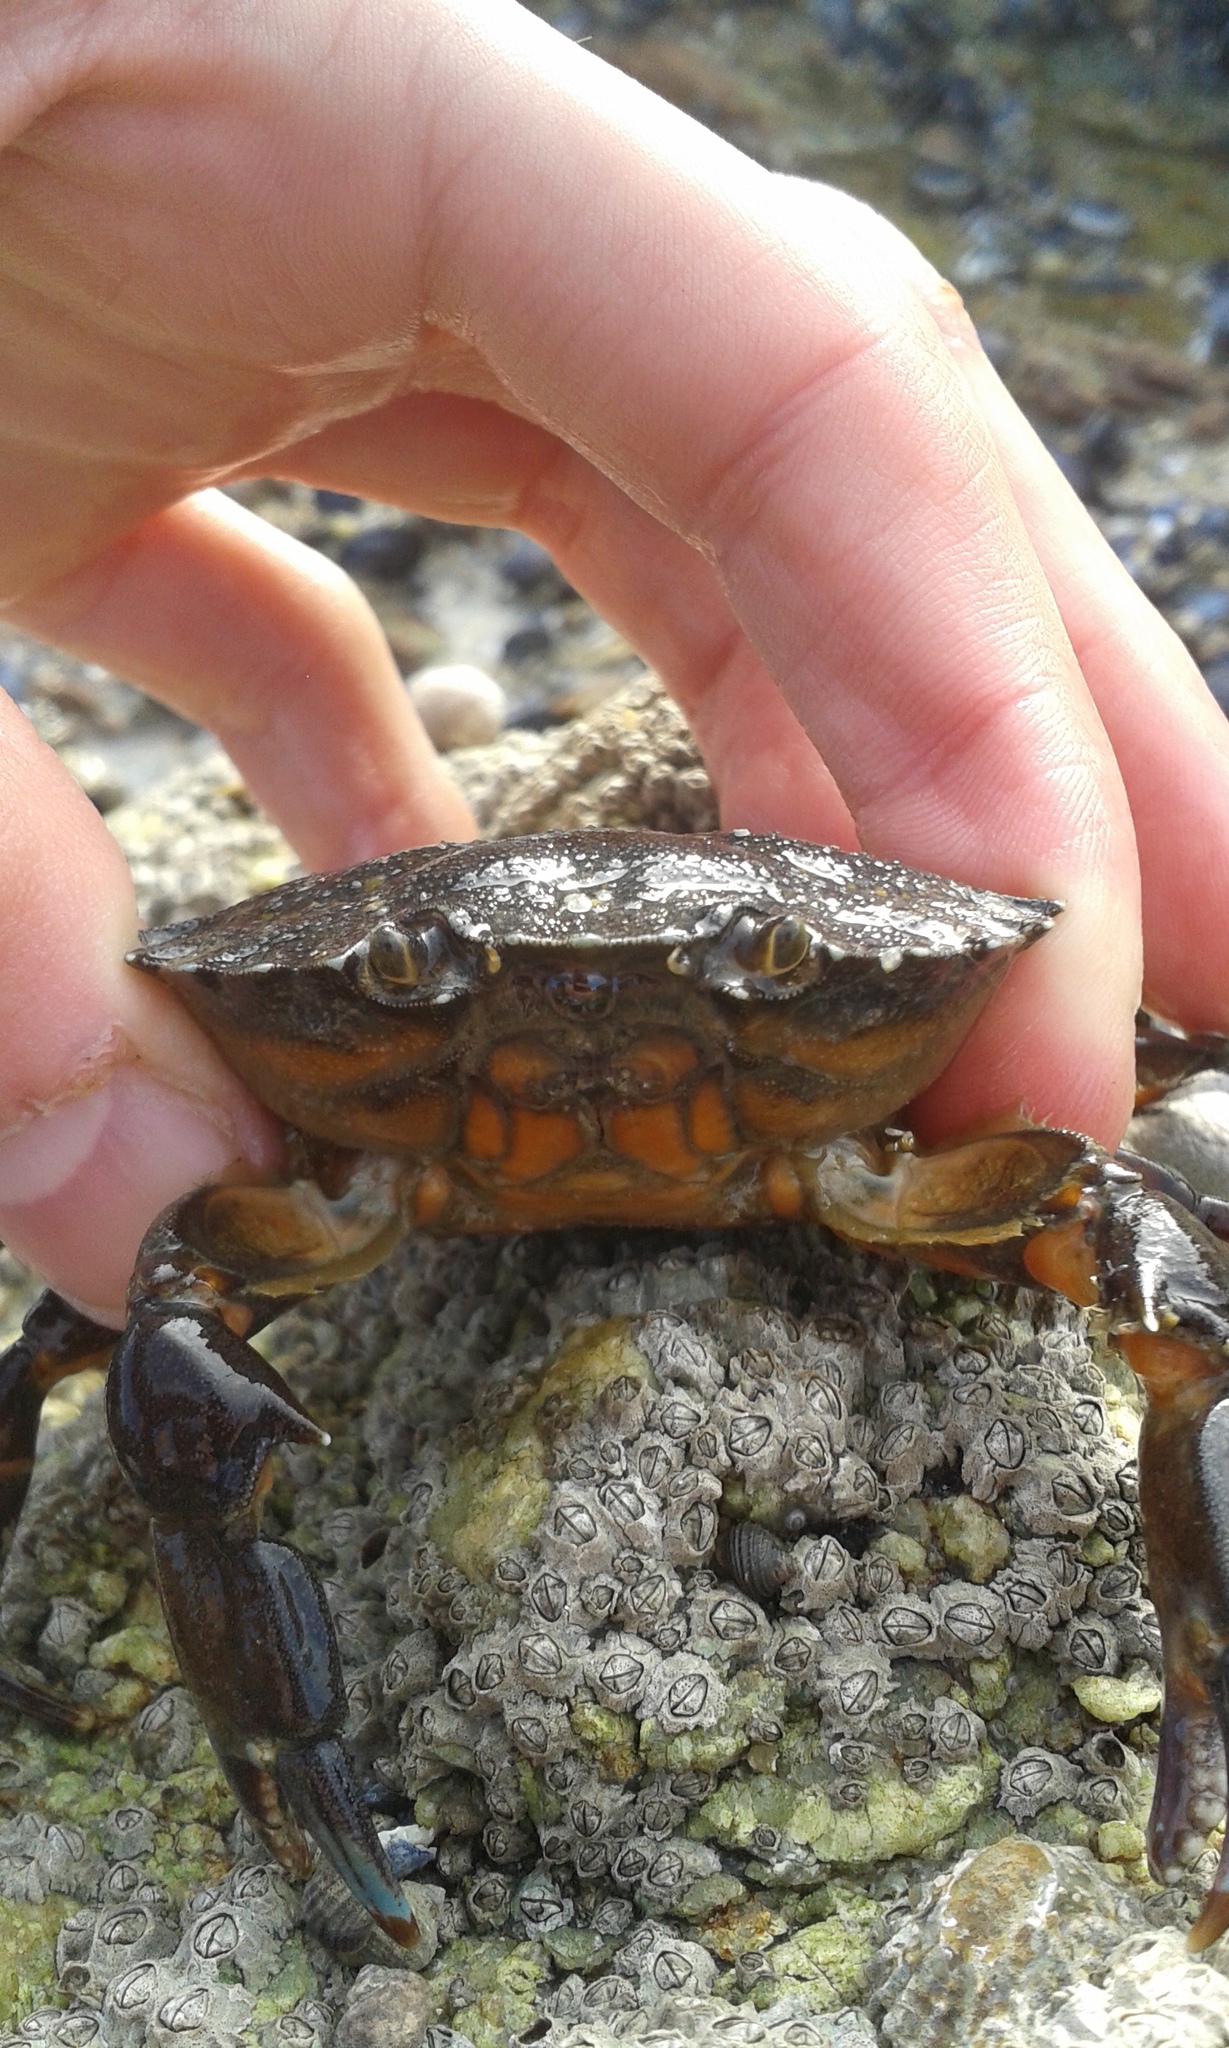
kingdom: Animalia
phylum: Arthropoda
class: Malacostraca
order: Decapoda
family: Carcinidae
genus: Carcinus
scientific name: Carcinus maenas
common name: European green crab
